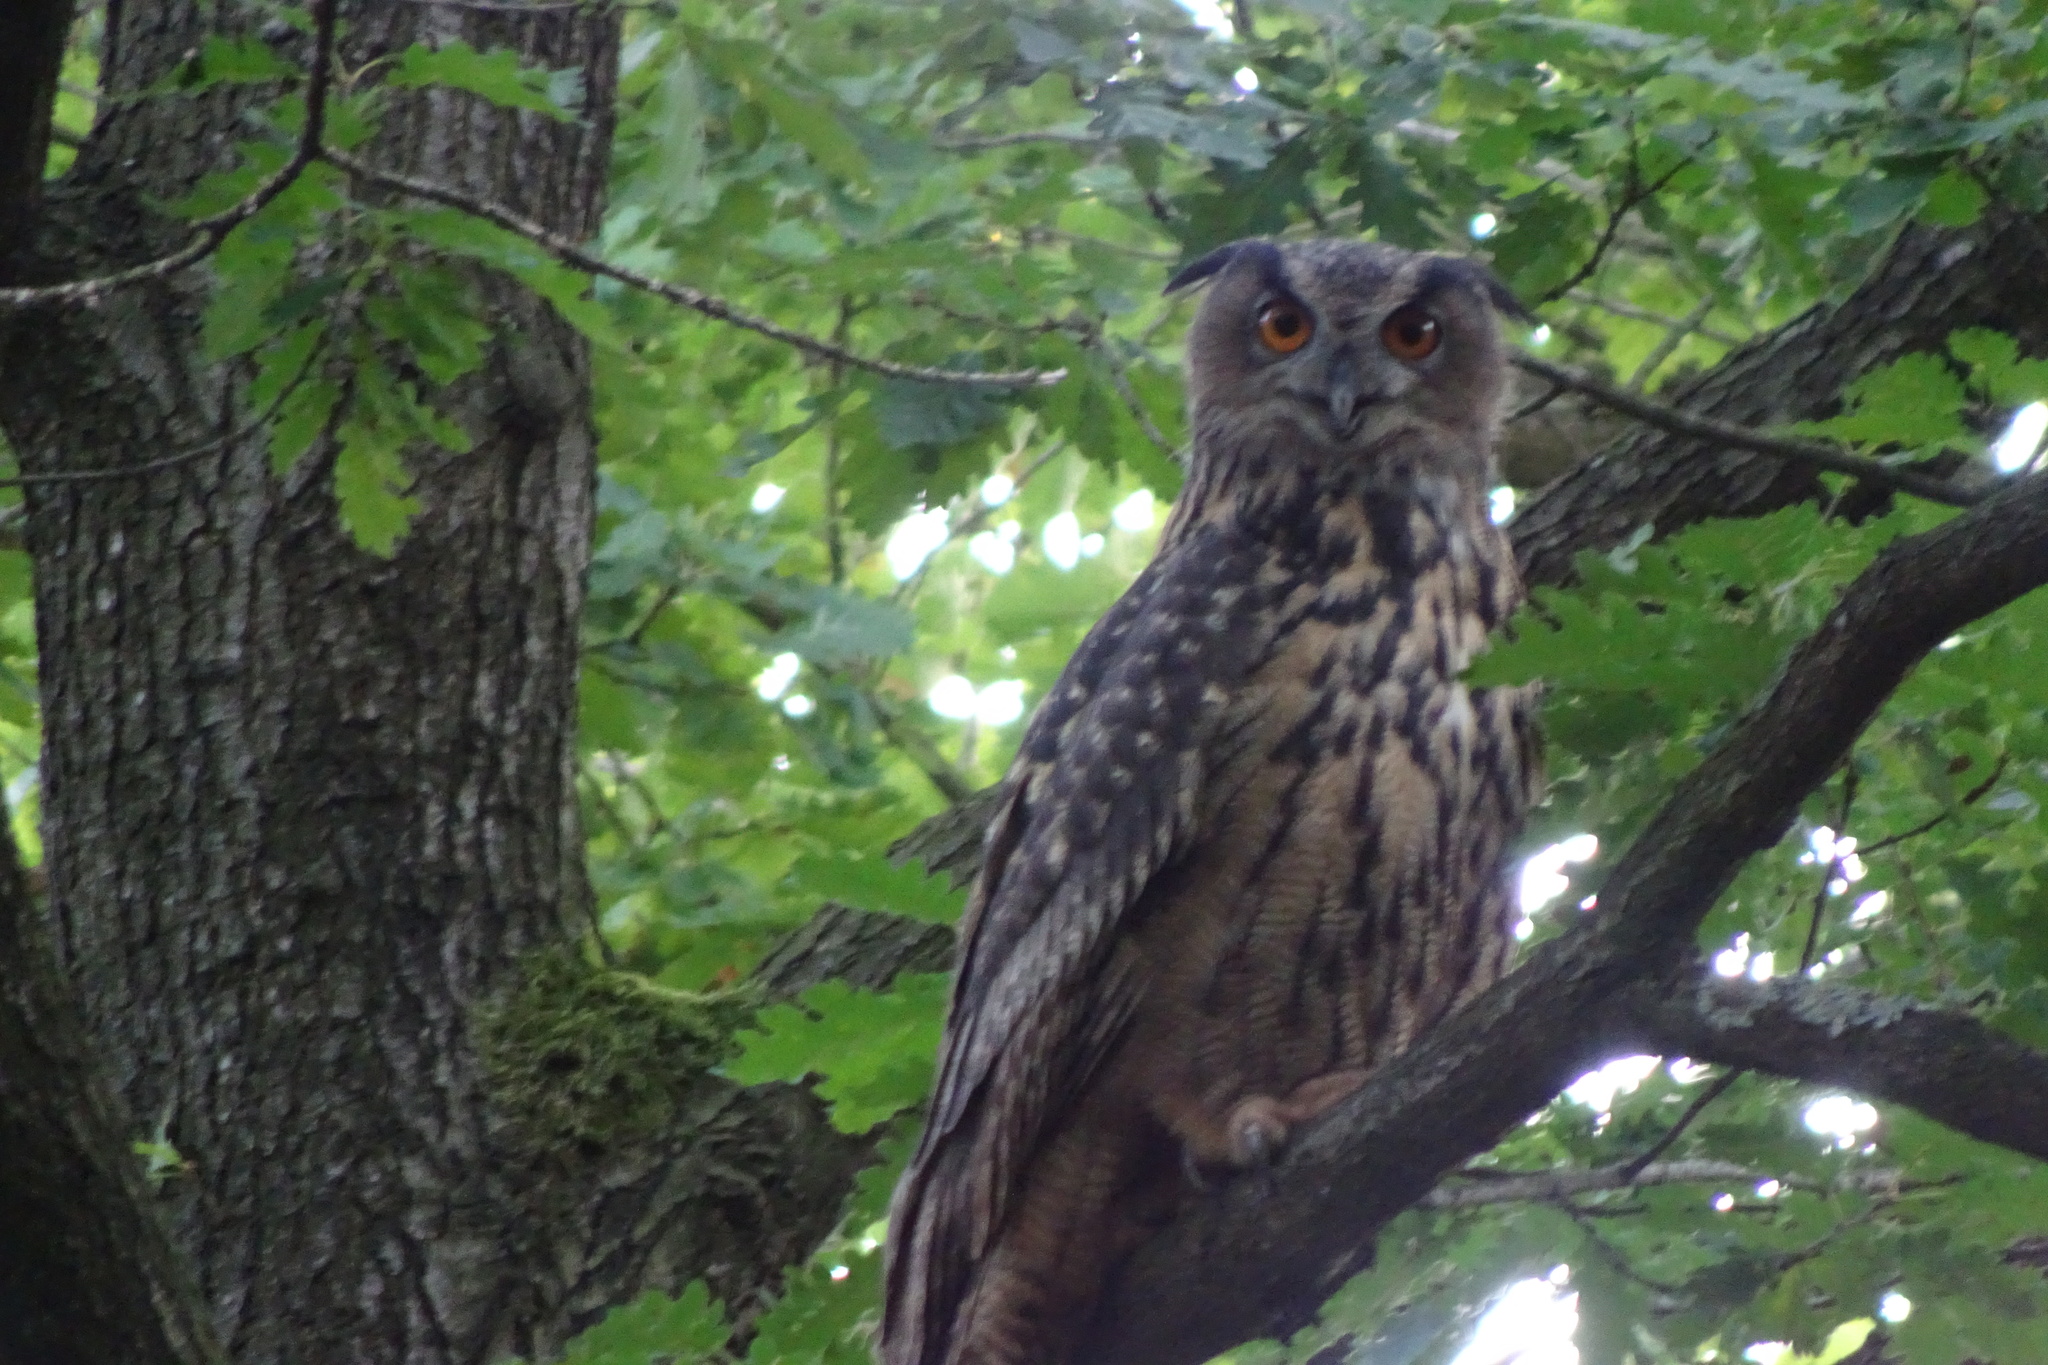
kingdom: Animalia
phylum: Chordata
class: Aves
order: Strigiformes
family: Strigidae
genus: Bubo
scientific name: Bubo bubo
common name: Eurasian eagle-owl
